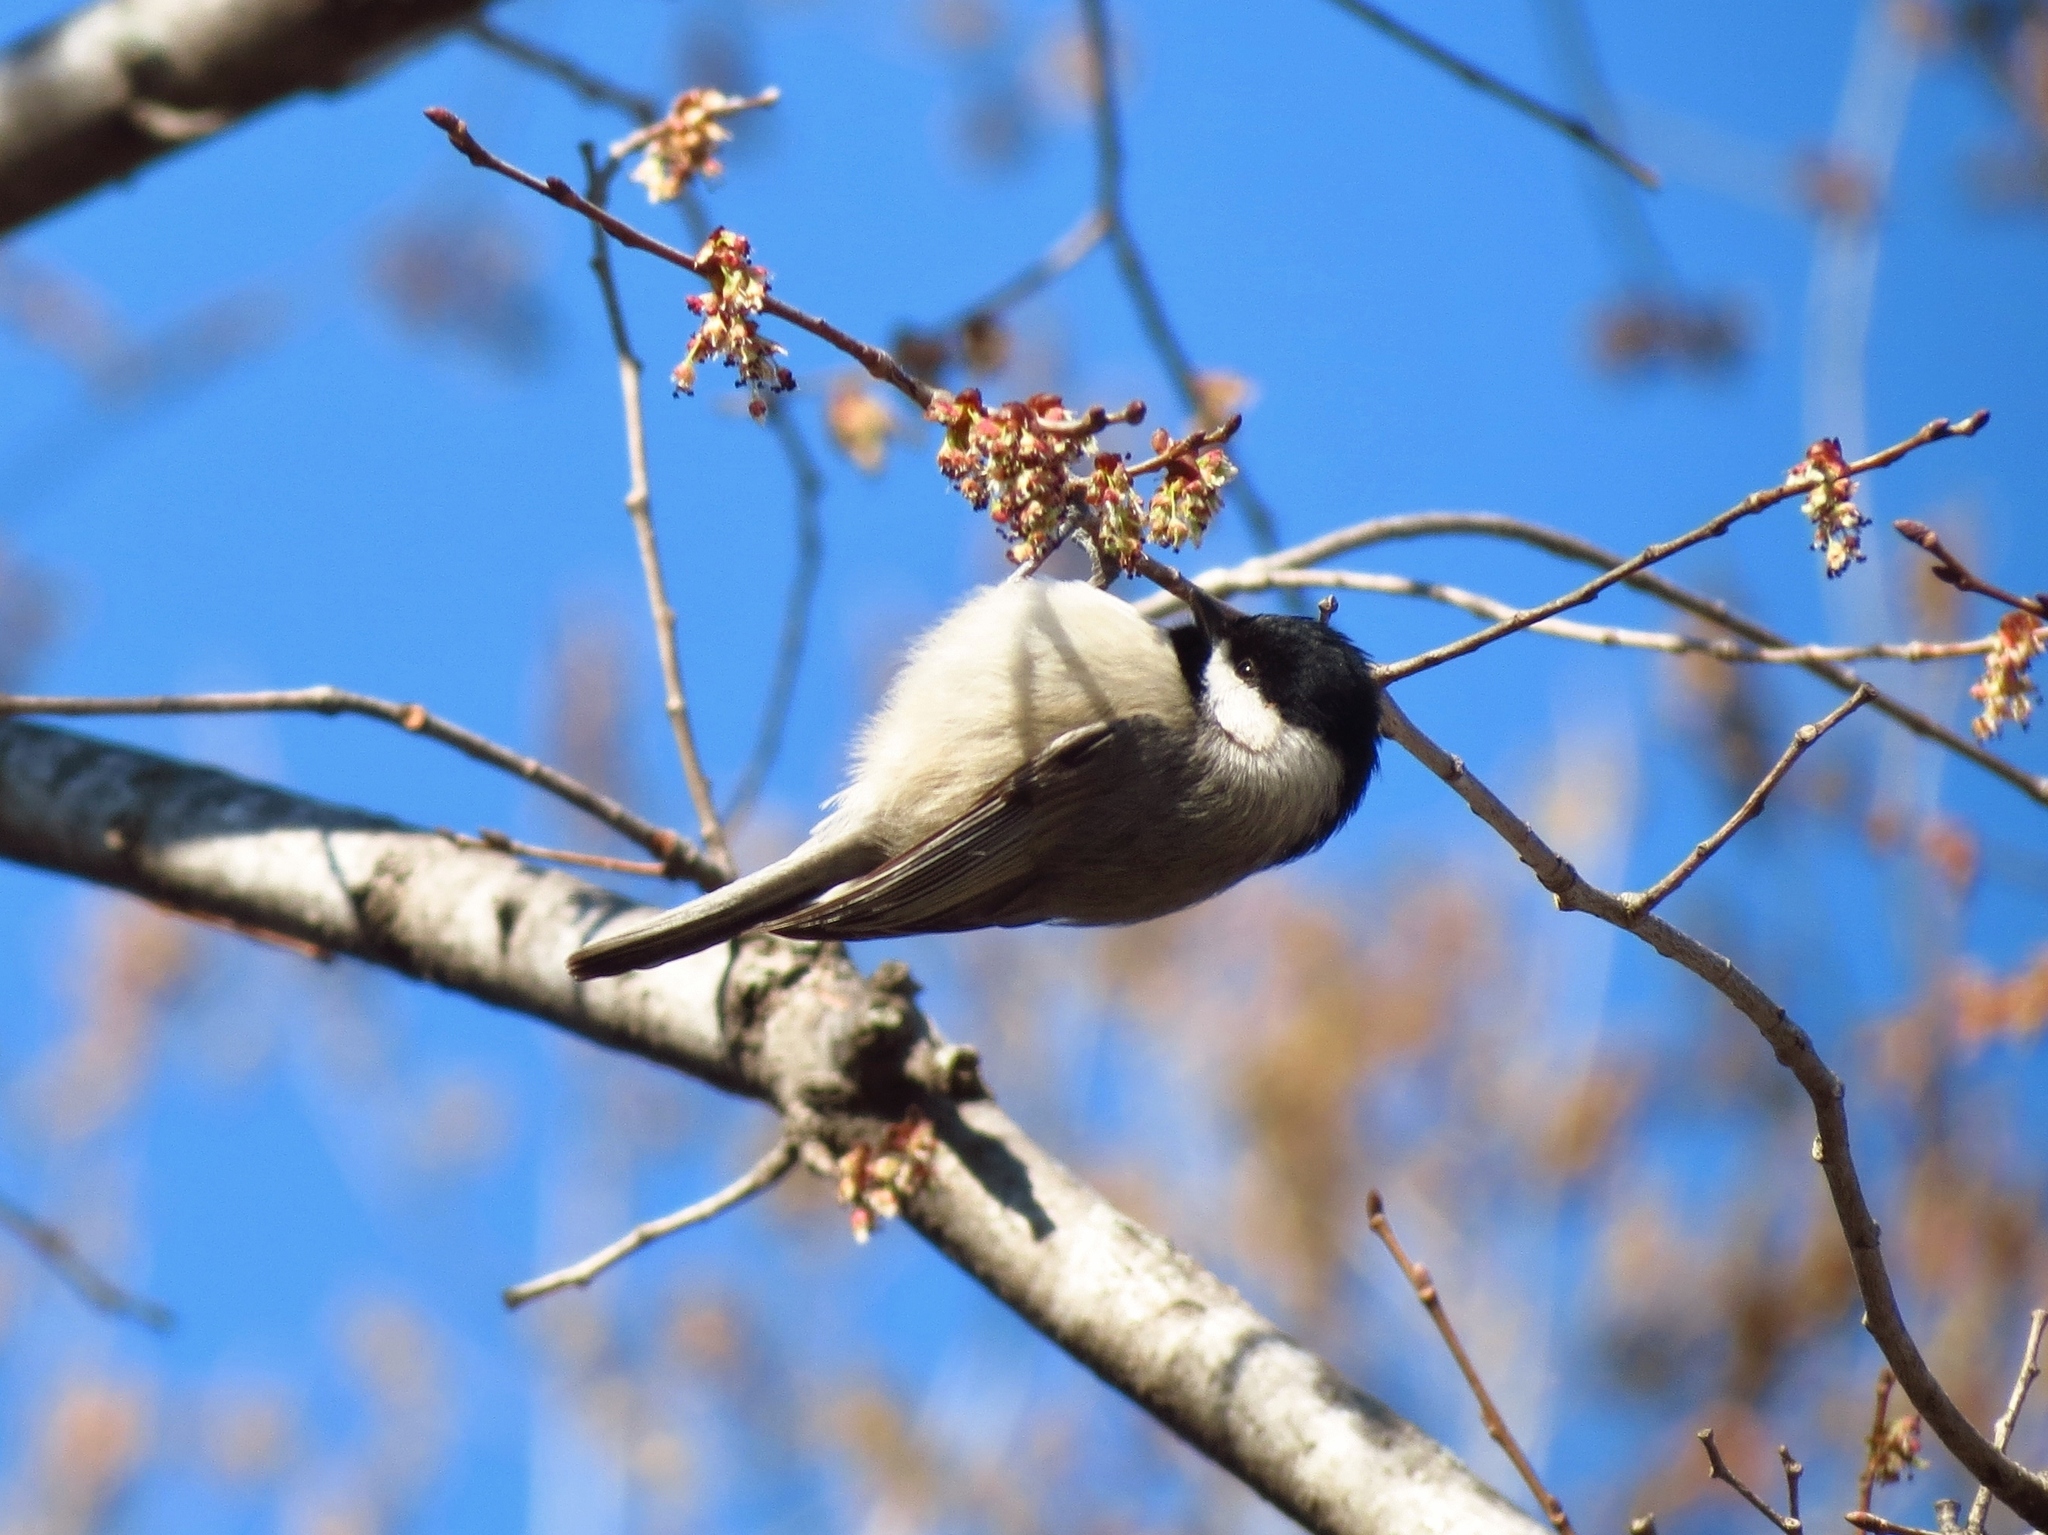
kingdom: Animalia
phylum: Chordata
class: Aves
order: Passeriformes
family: Paridae
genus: Poecile
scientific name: Poecile carolinensis
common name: Carolina chickadee
